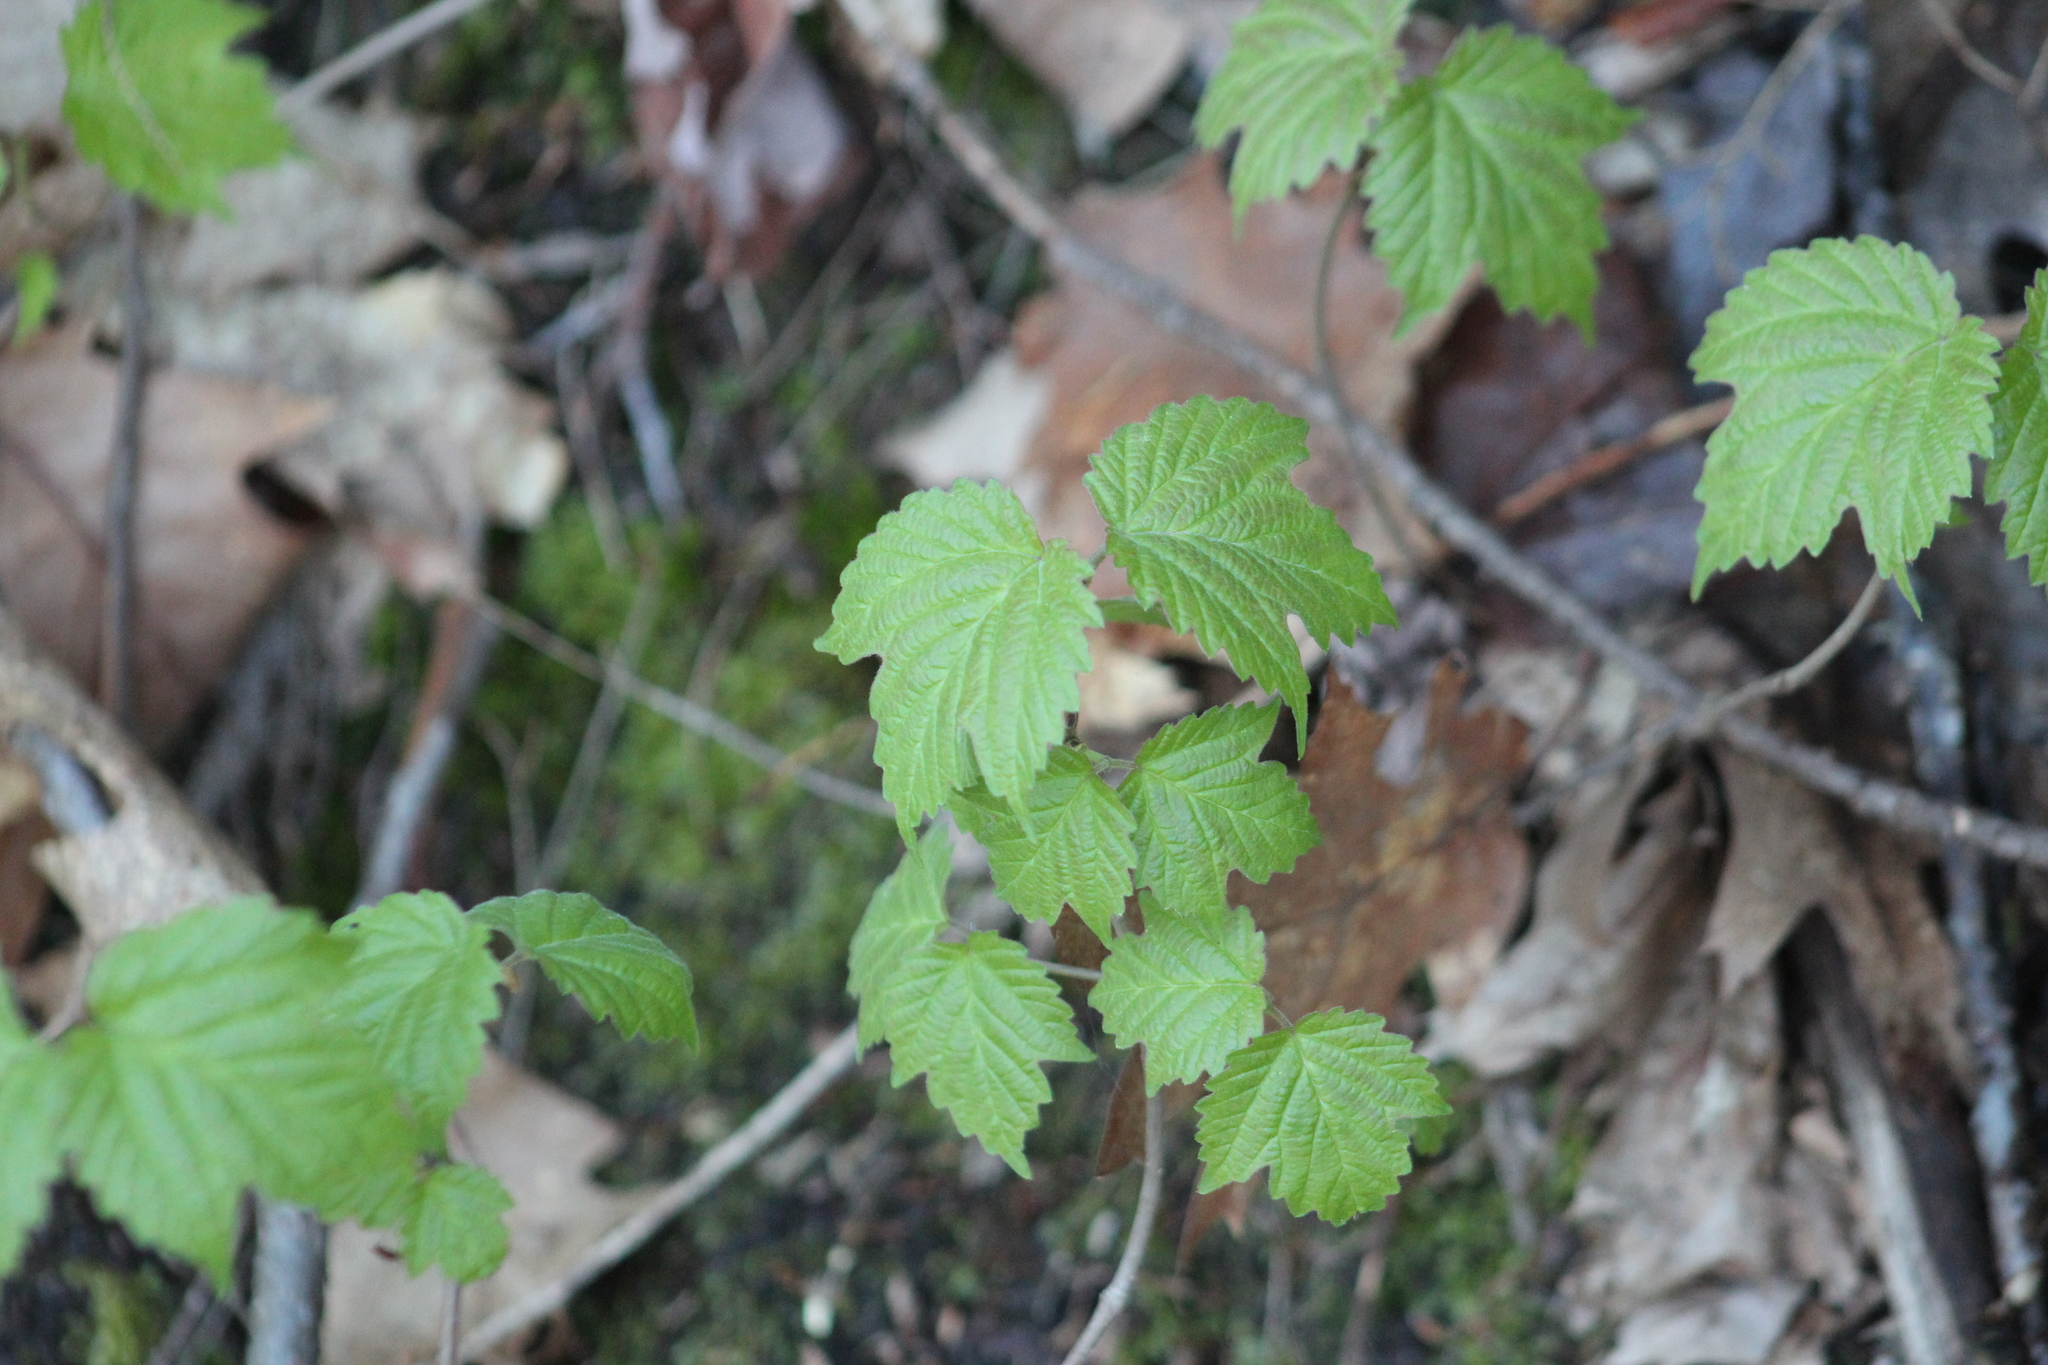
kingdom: Plantae
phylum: Tracheophyta
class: Magnoliopsida
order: Dipsacales
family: Viburnaceae
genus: Viburnum
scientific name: Viburnum acerifolium
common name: Dockmackie
